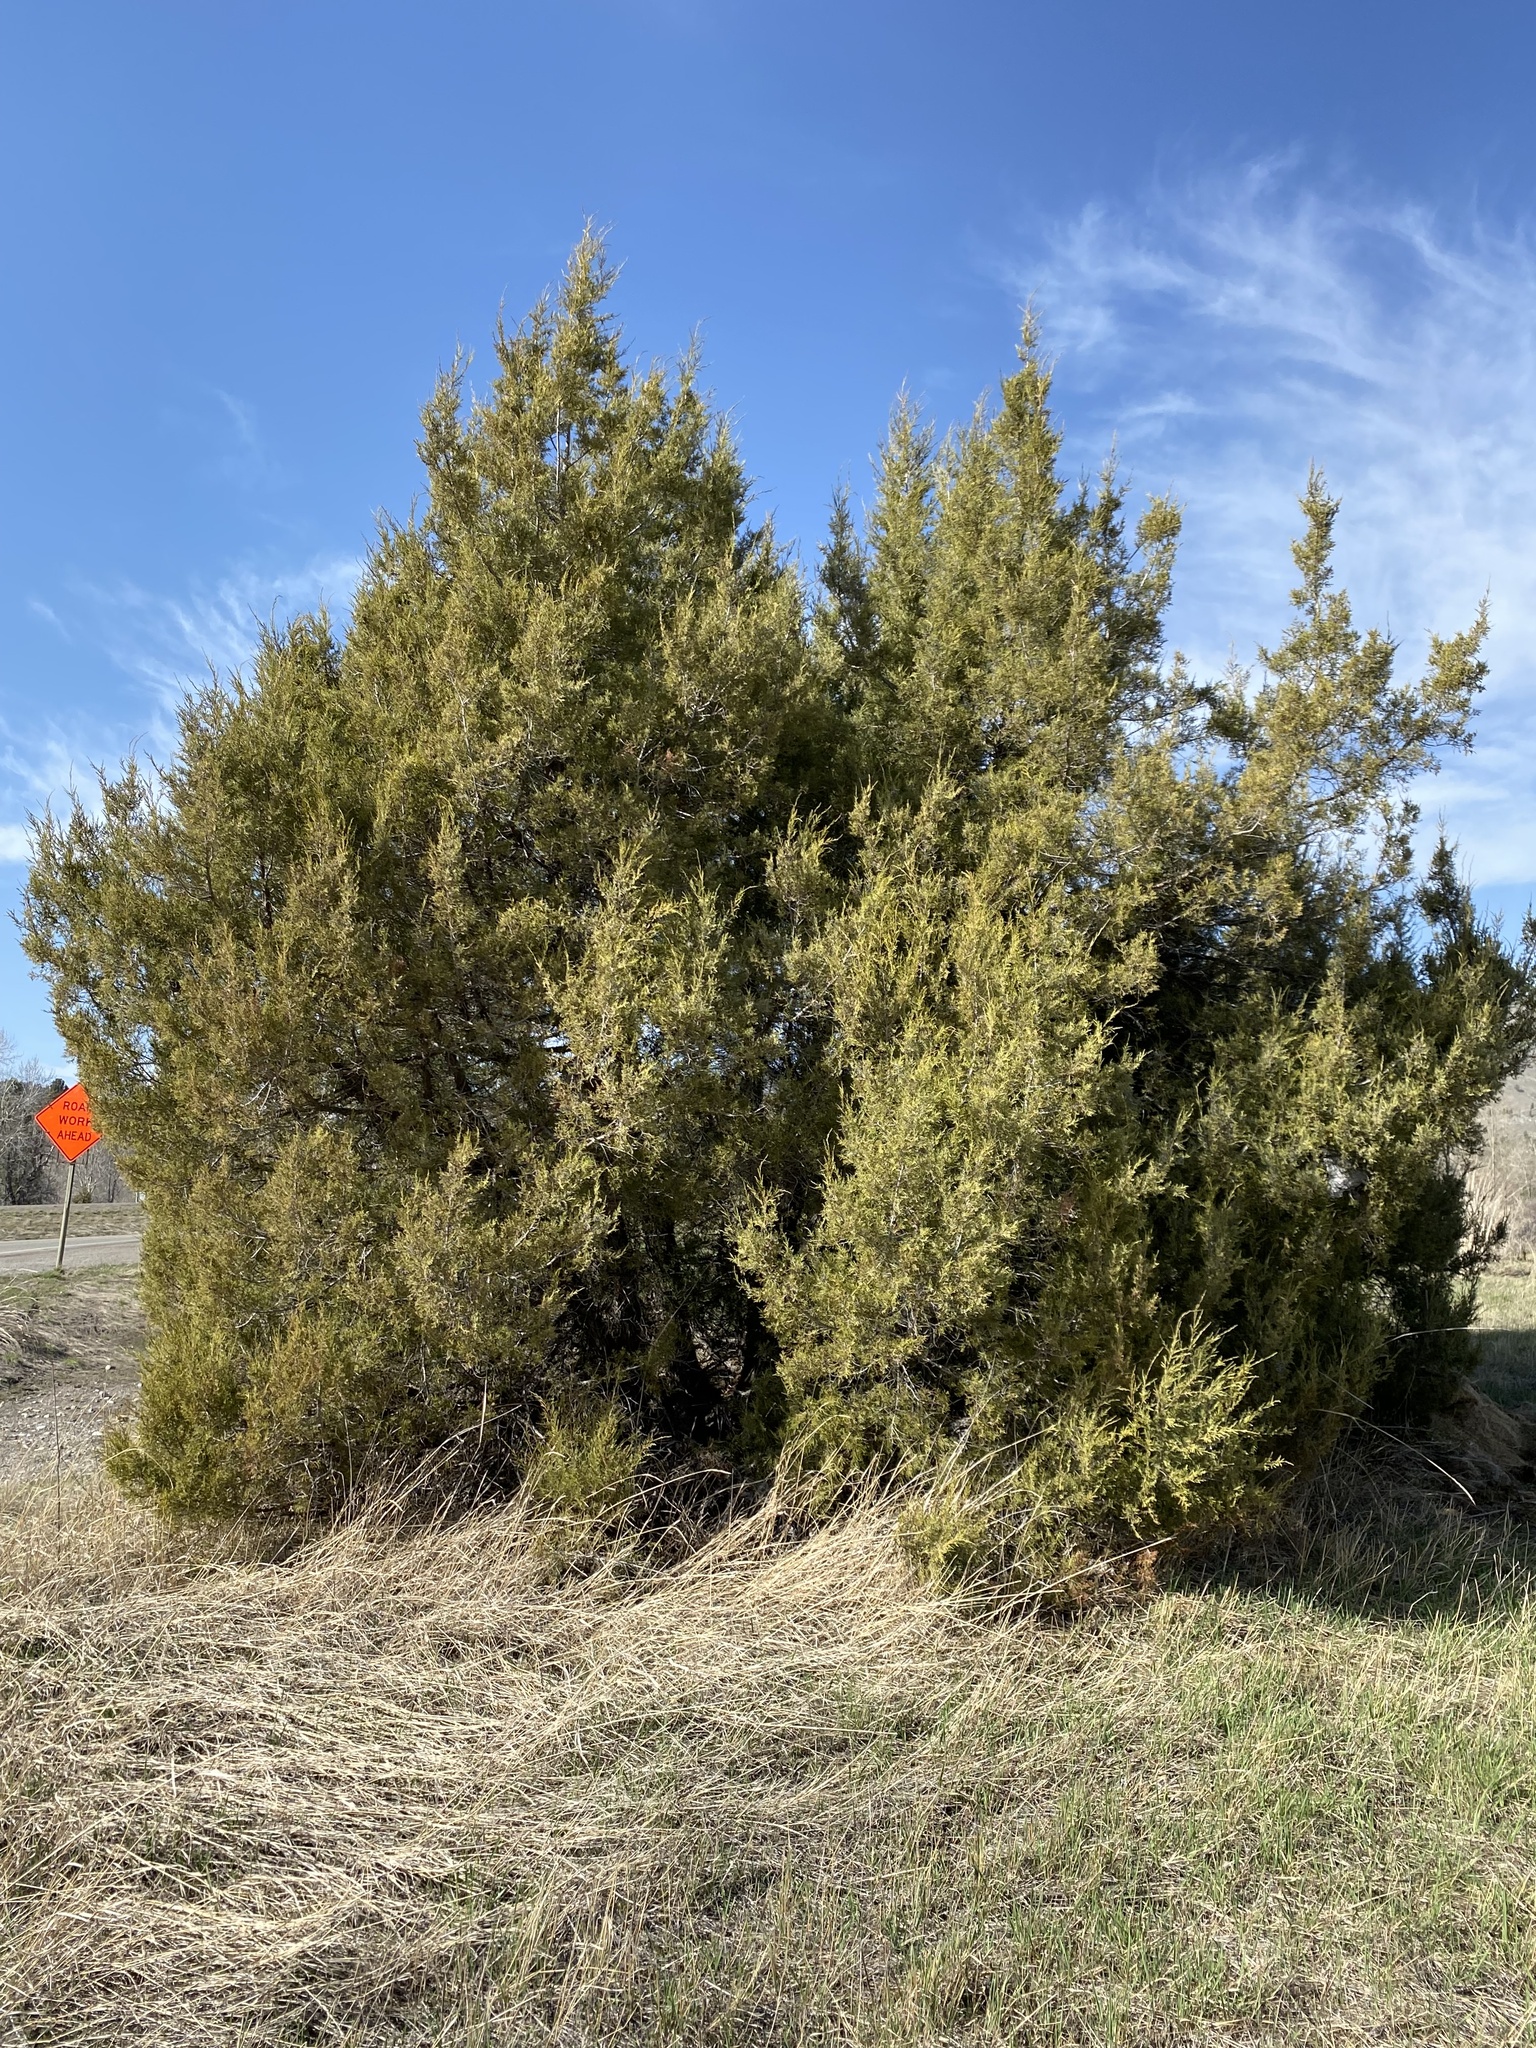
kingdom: Plantae
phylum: Tracheophyta
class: Pinopsida
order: Pinales
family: Cupressaceae
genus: Juniperus
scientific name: Juniperus scopulorum
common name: Rocky mountain juniper
